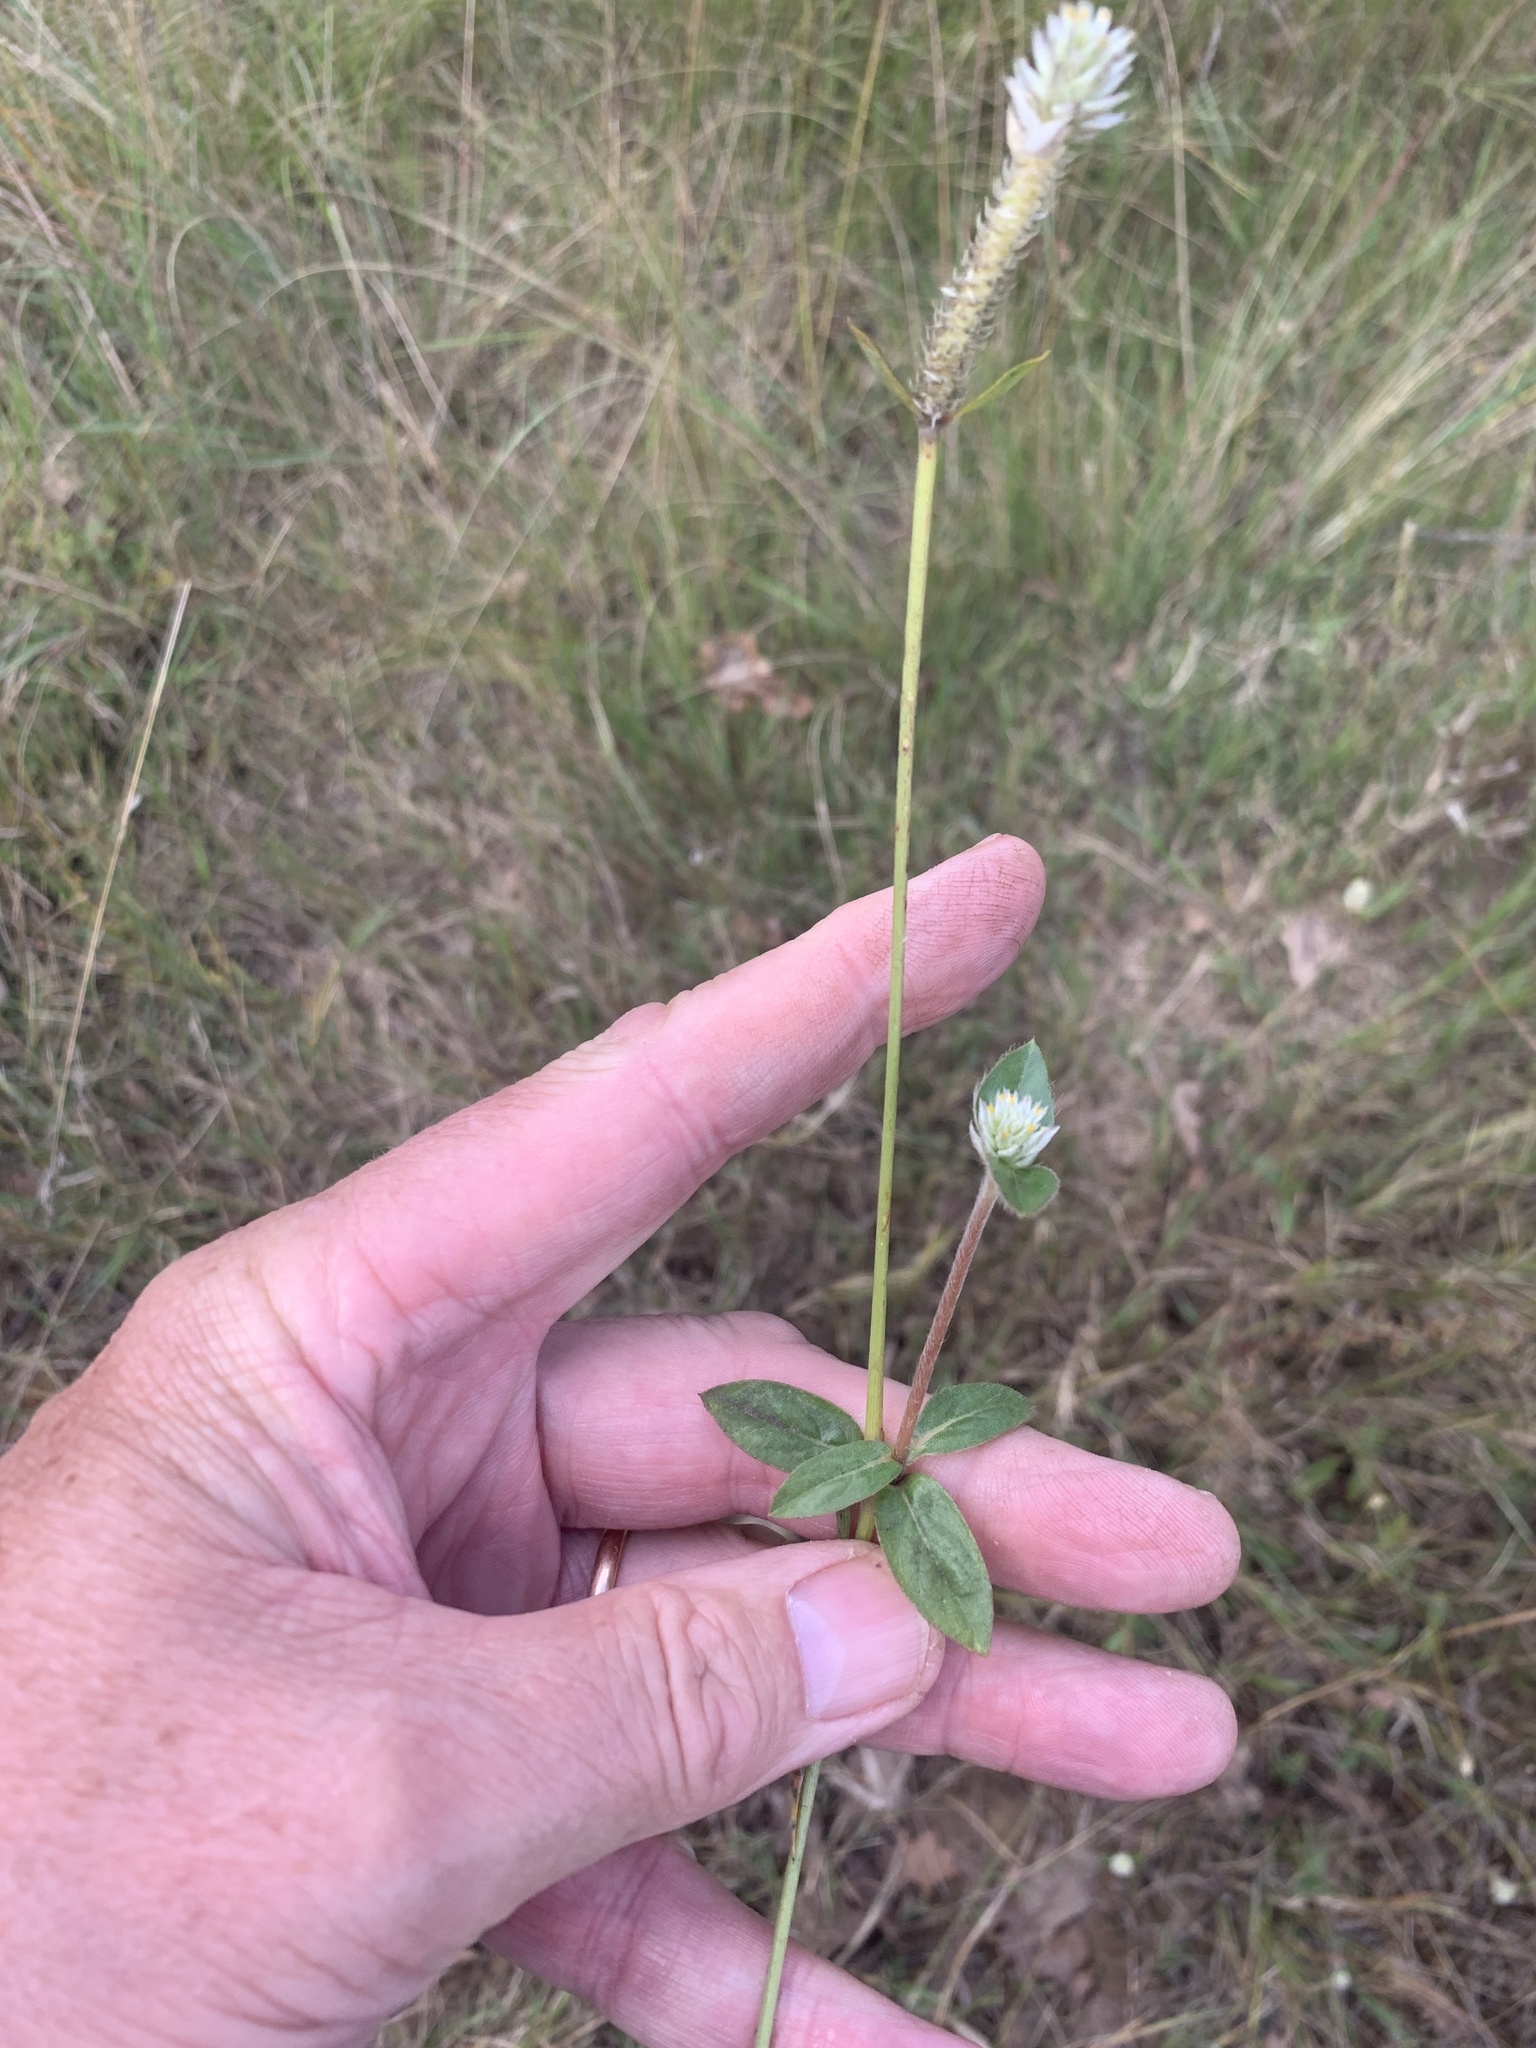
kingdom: Plantae
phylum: Tracheophyta
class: Magnoliopsida
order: Caryophyllales
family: Amaranthaceae
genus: Gomphrena
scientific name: Gomphrena celosioides
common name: Gomphrena-weed
